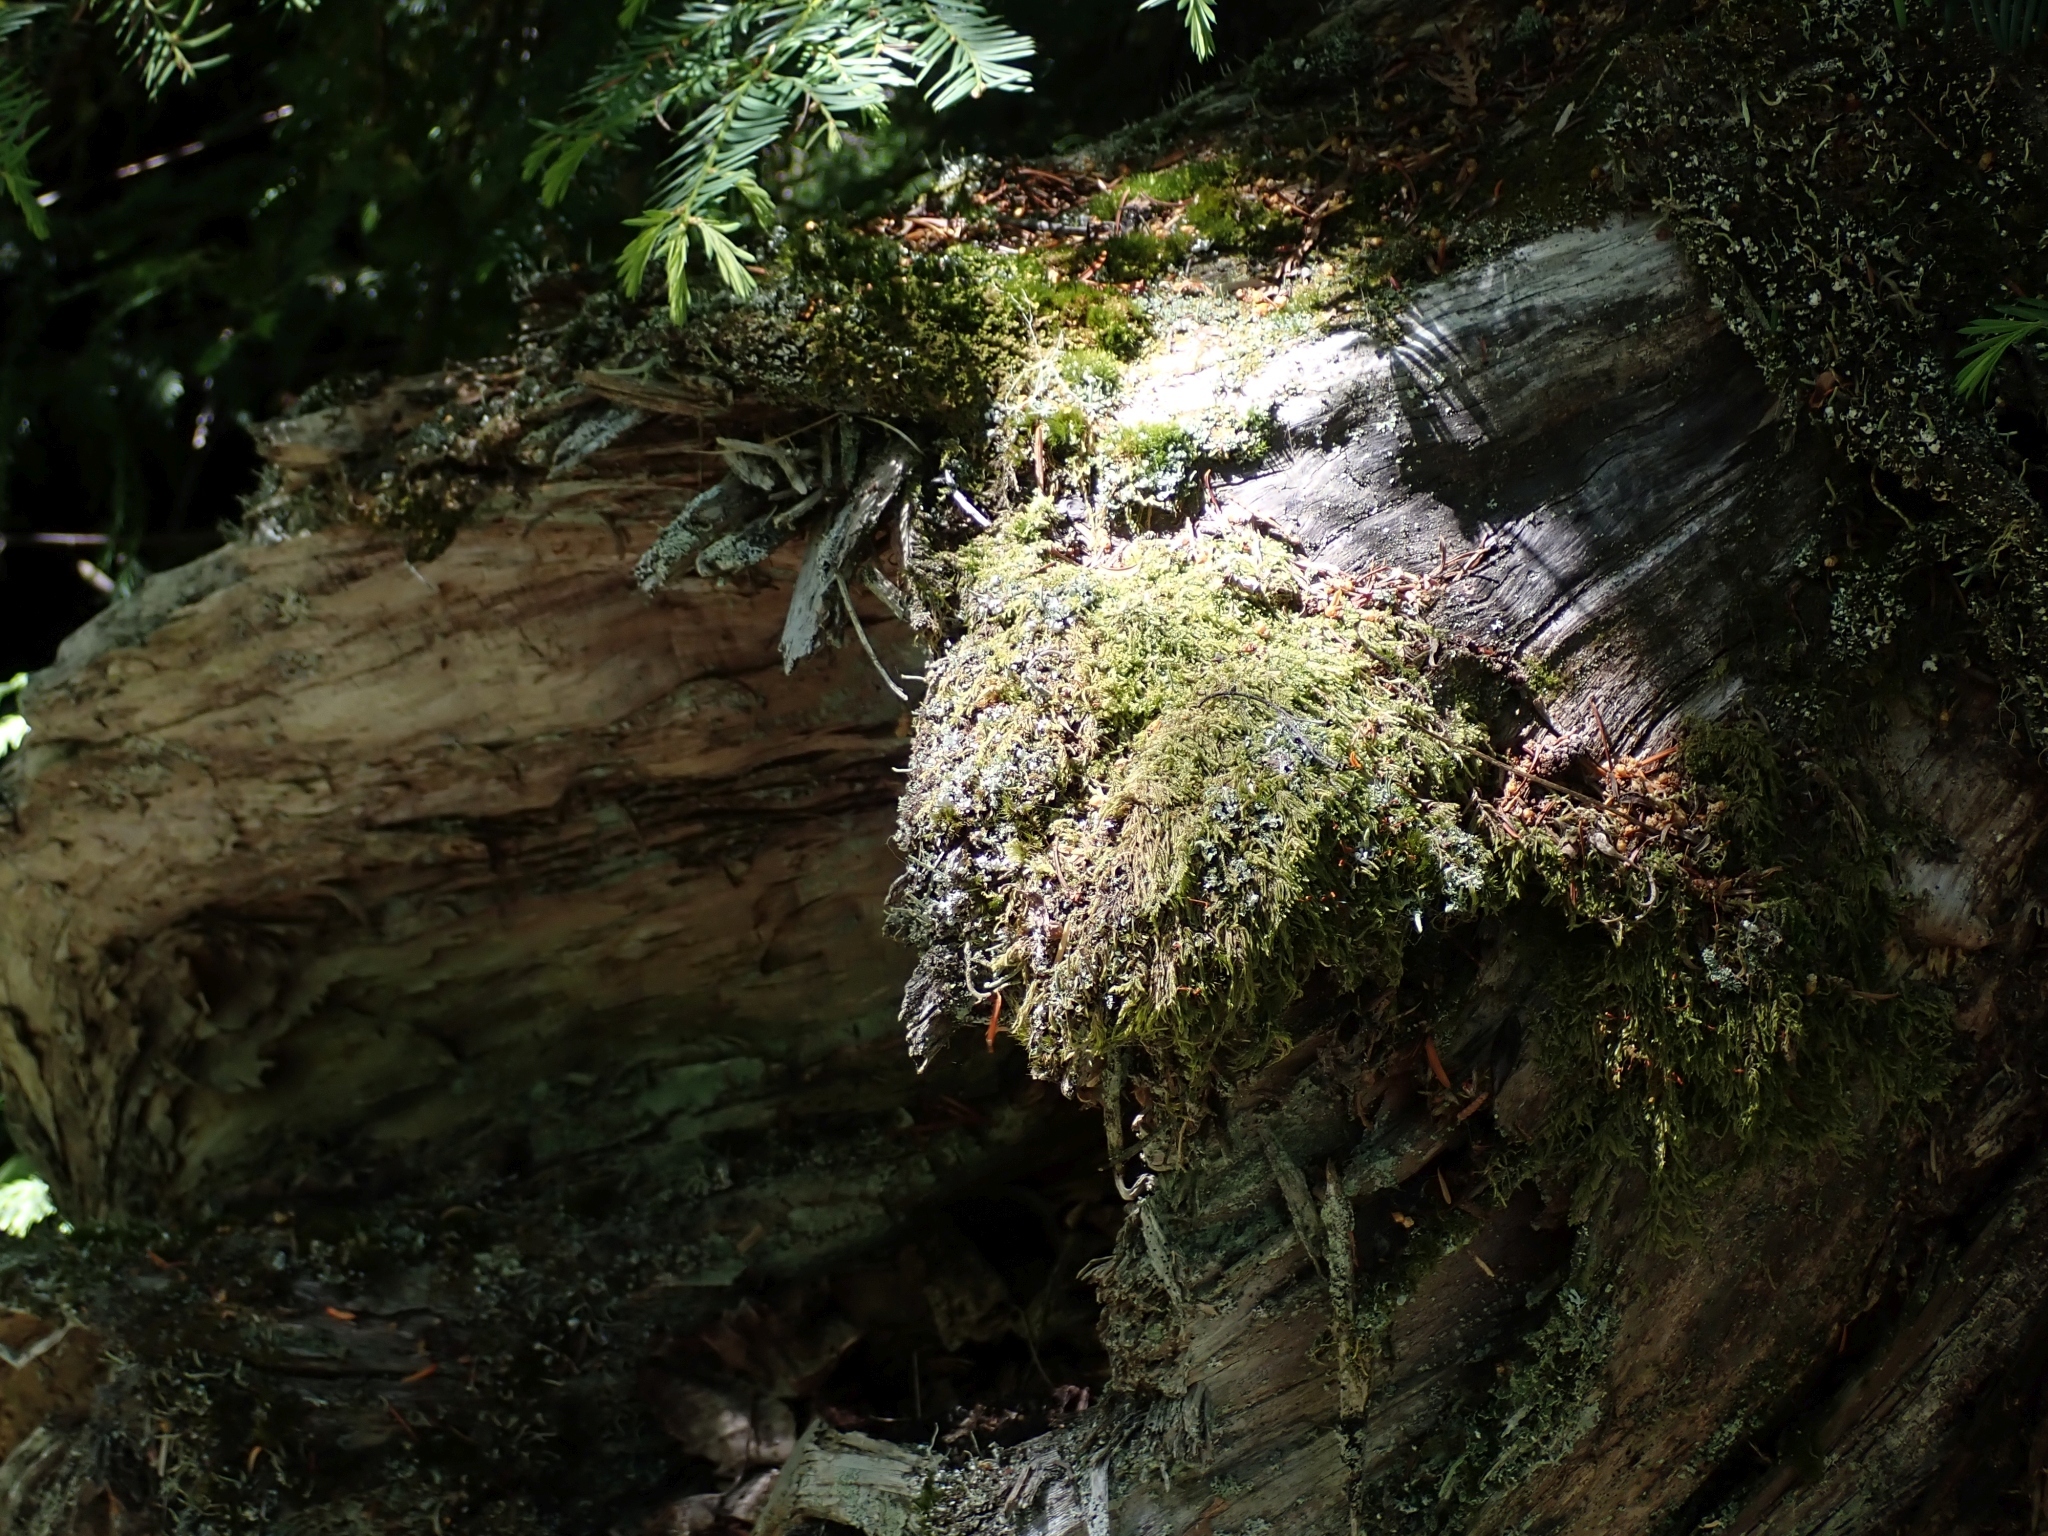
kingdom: Plantae
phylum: Bryophyta
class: Bryopsida
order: Hypnales
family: Pylaisiadelphaceae
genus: Trochophyllohypnum
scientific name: Trochophyllohypnum circinale
